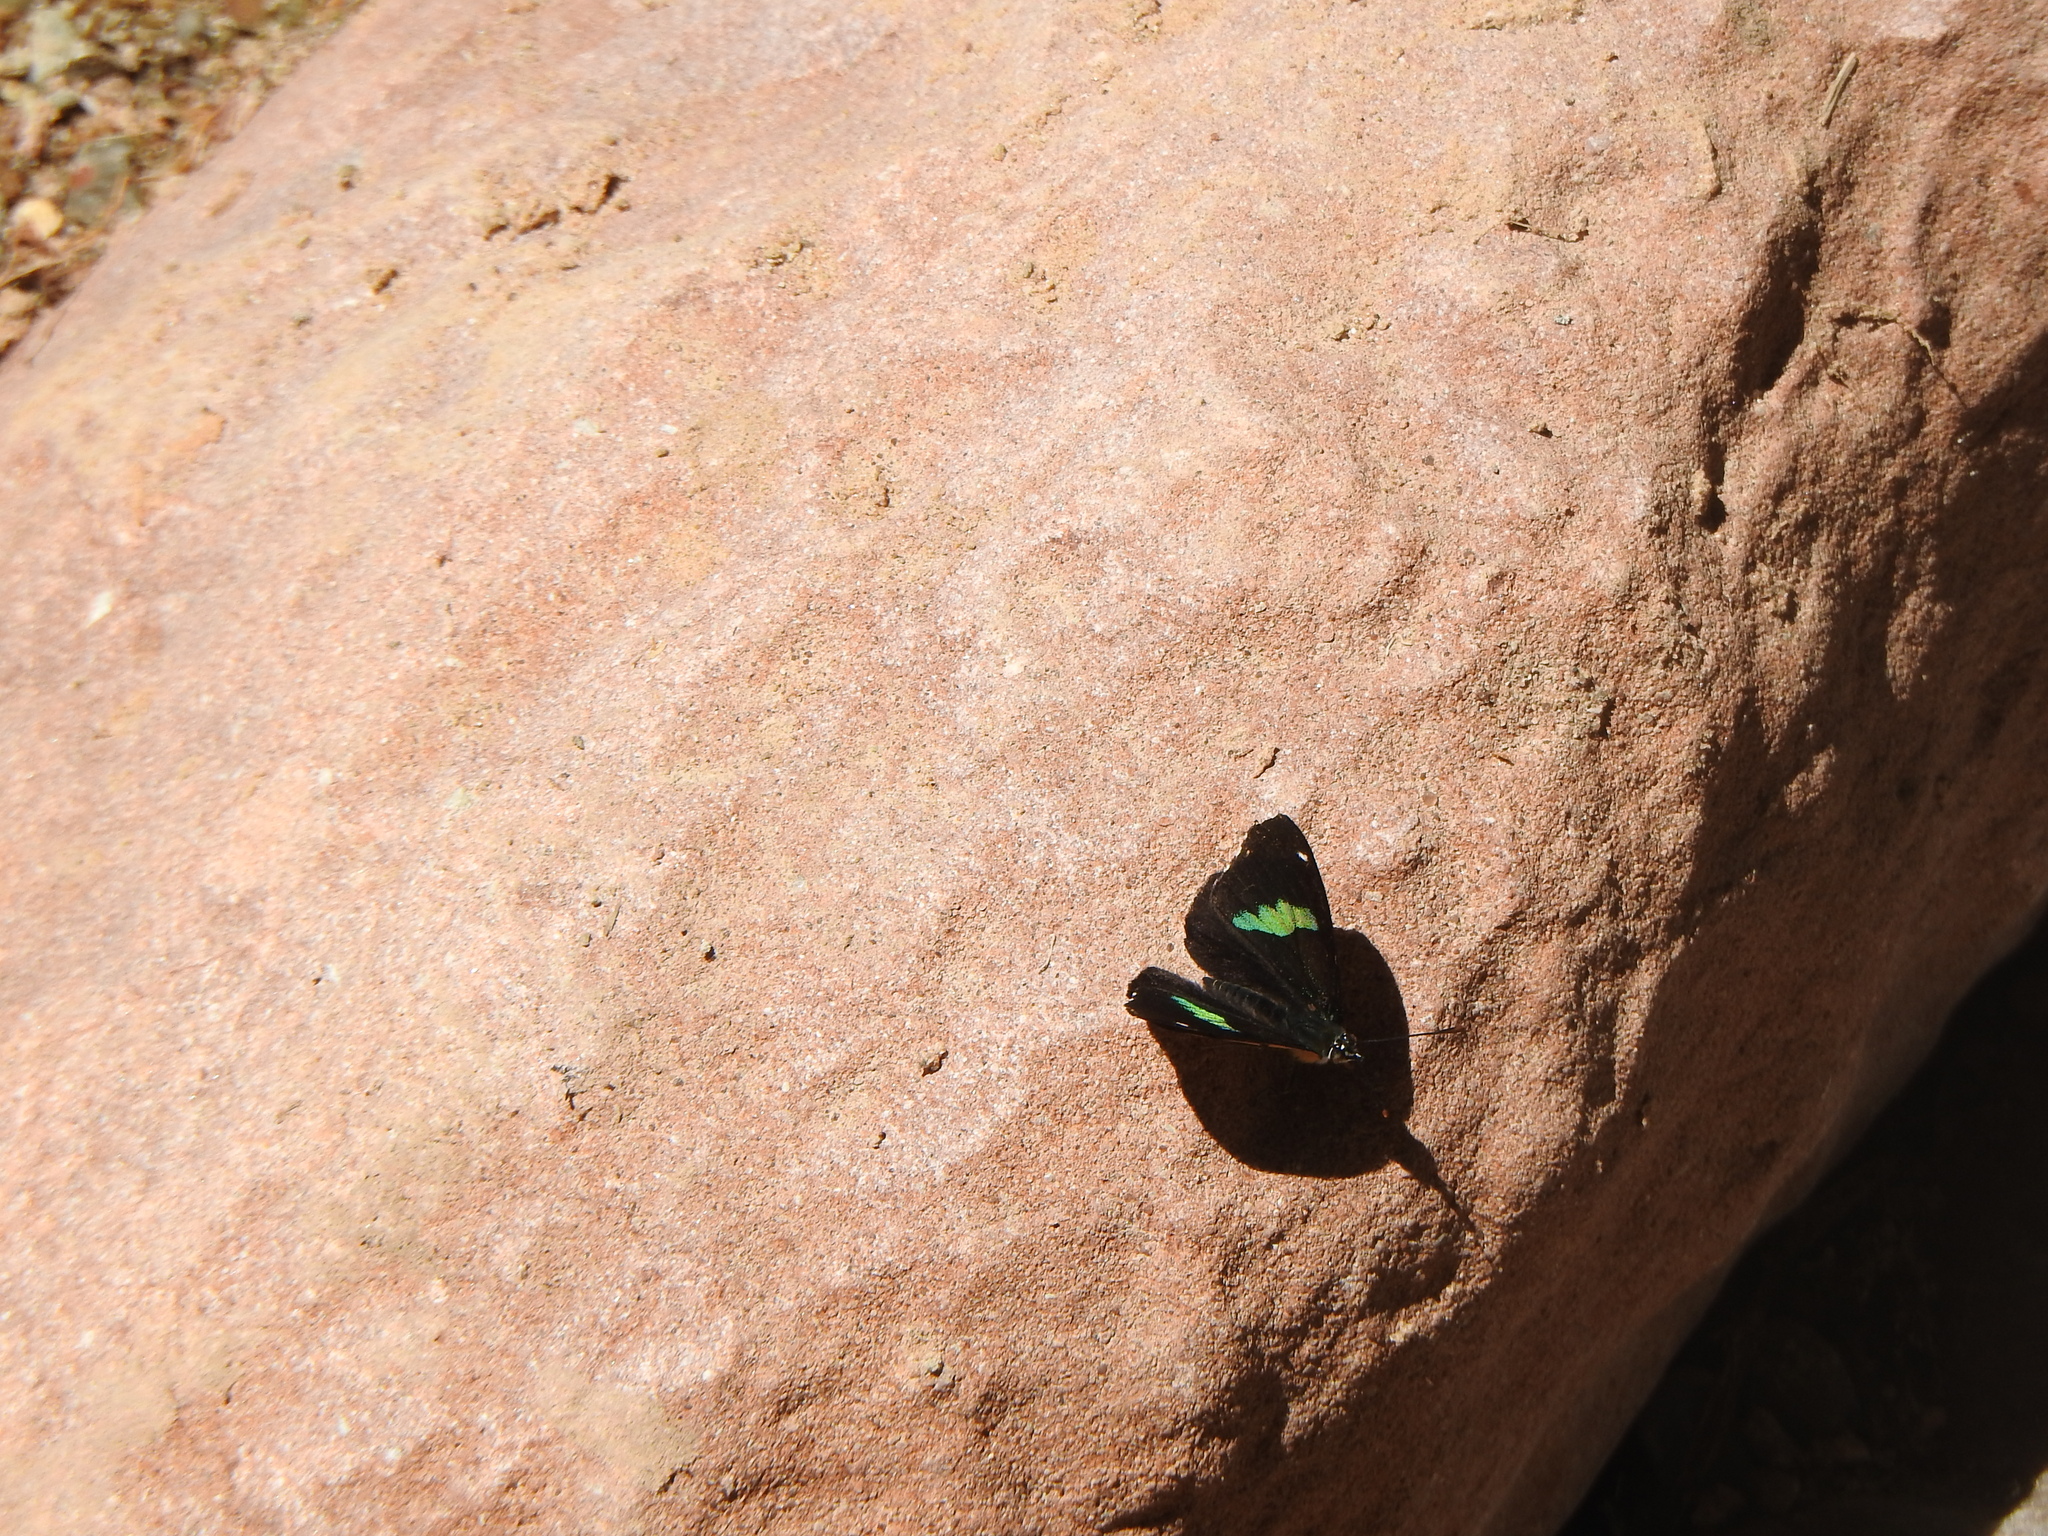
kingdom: Animalia
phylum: Arthropoda
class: Insecta
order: Lepidoptera
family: Nymphalidae
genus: Perisama
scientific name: Perisama oppelii
